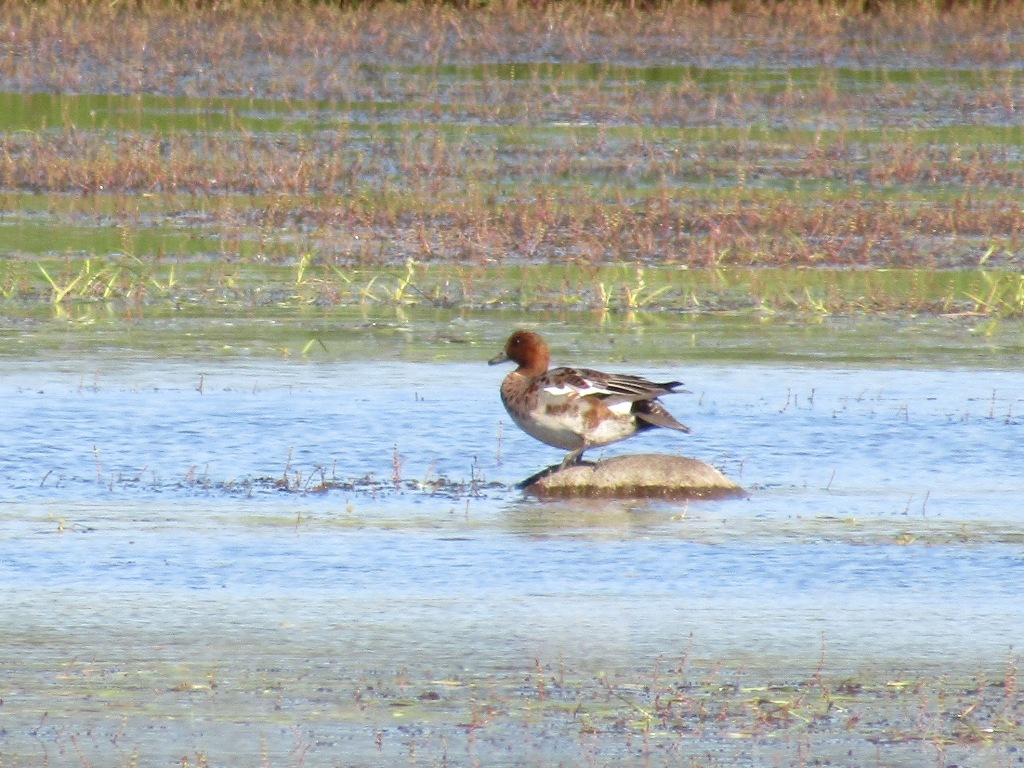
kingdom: Animalia
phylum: Chordata
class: Aves
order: Anseriformes
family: Anatidae
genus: Mareca
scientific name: Mareca penelope
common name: Eurasian wigeon
